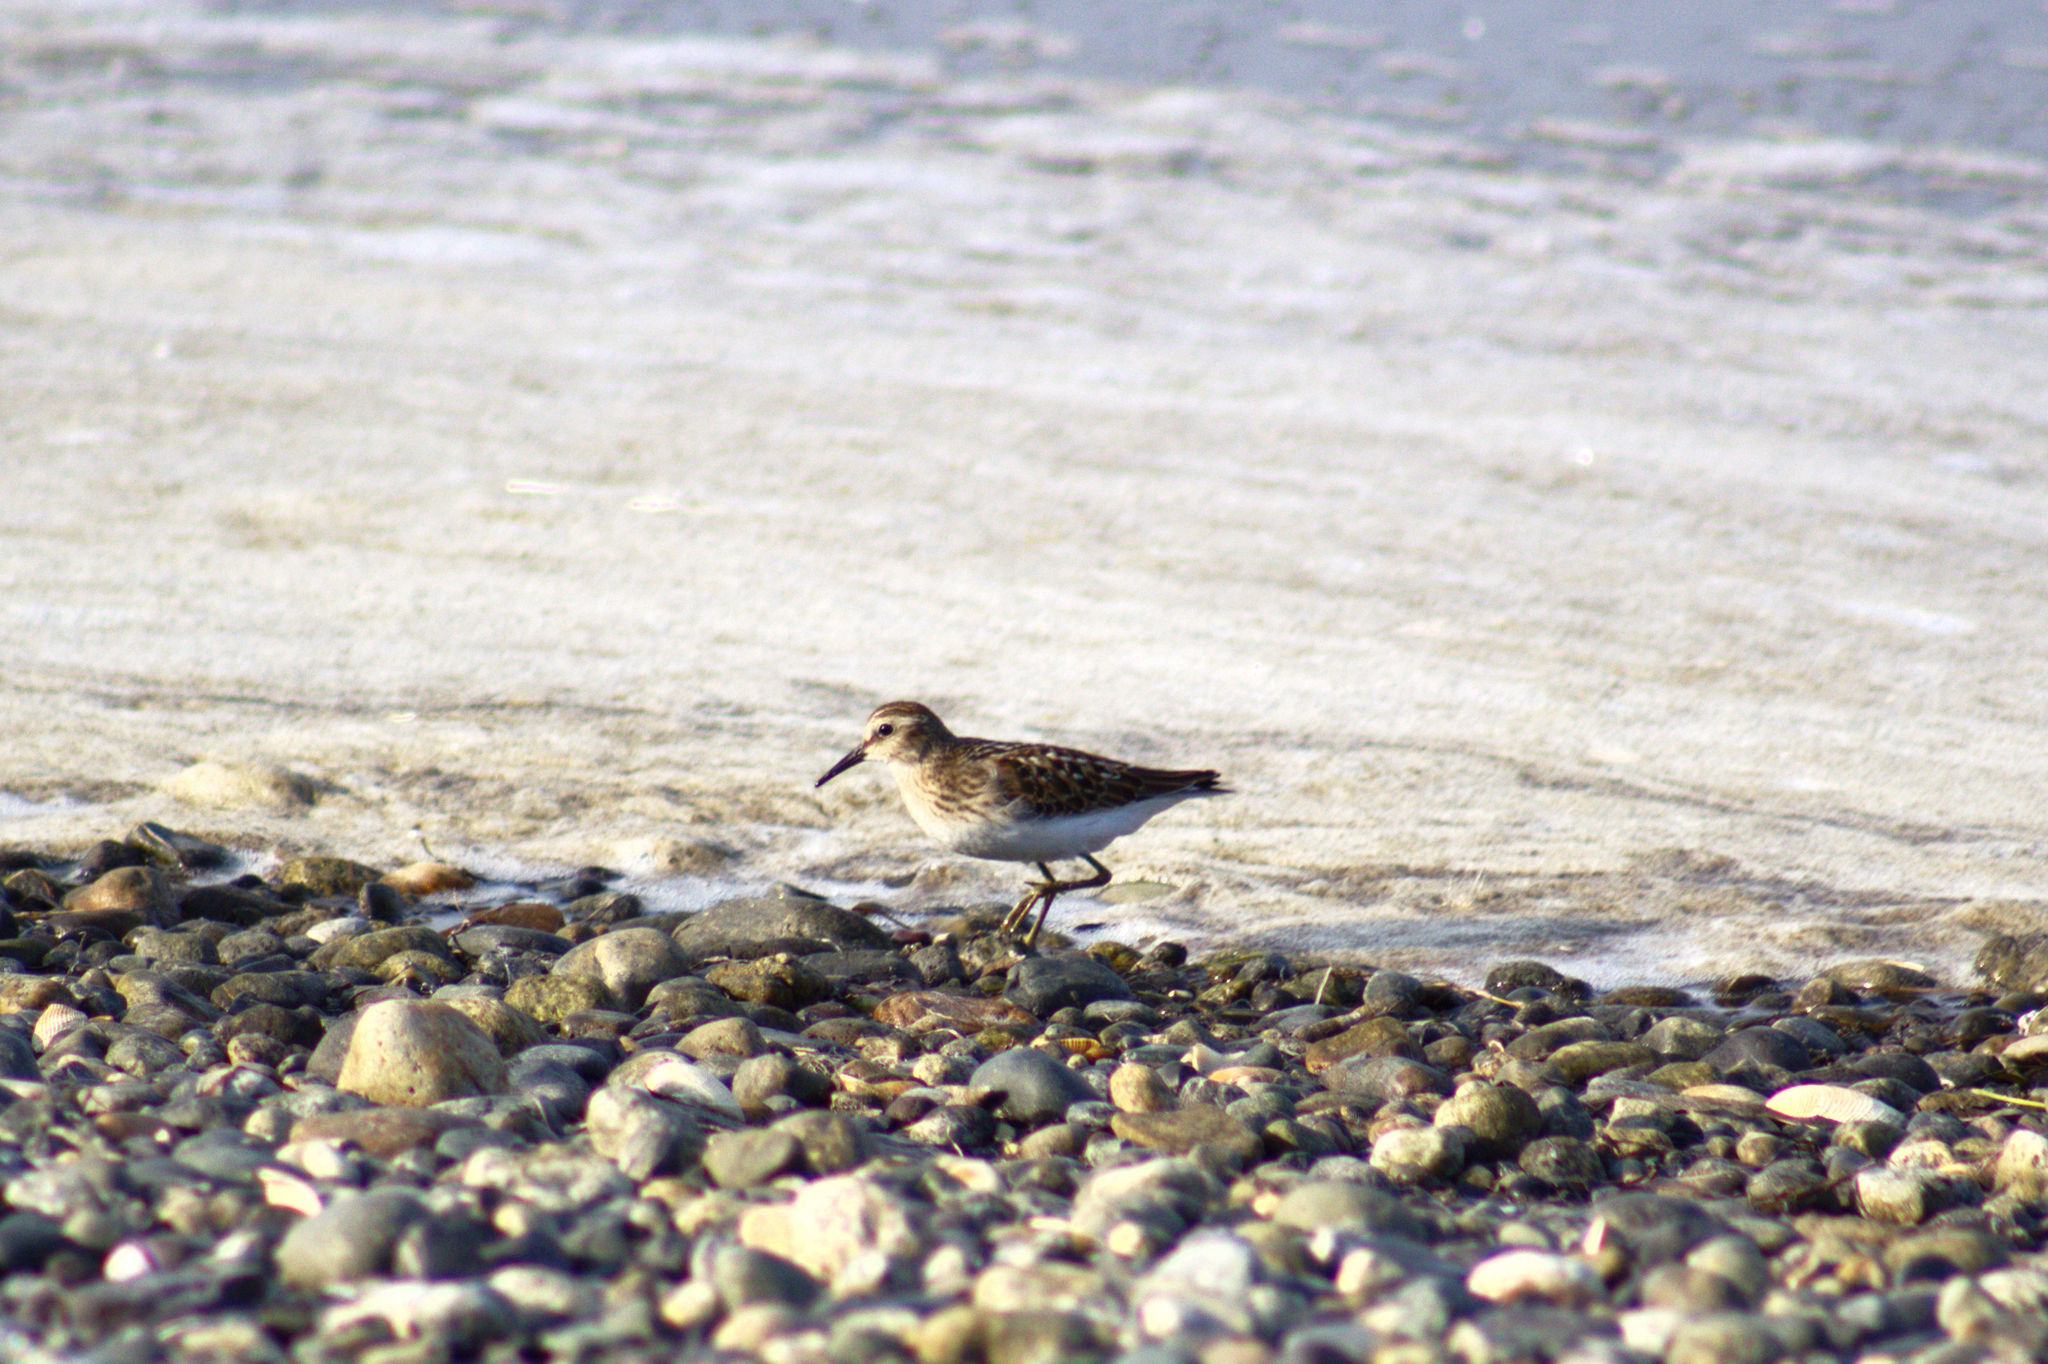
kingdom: Animalia
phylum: Chordata
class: Aves
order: Charadriiformes
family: Scolopacidae
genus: Calidris
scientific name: Calidris minutilla
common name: Least sandpiper
